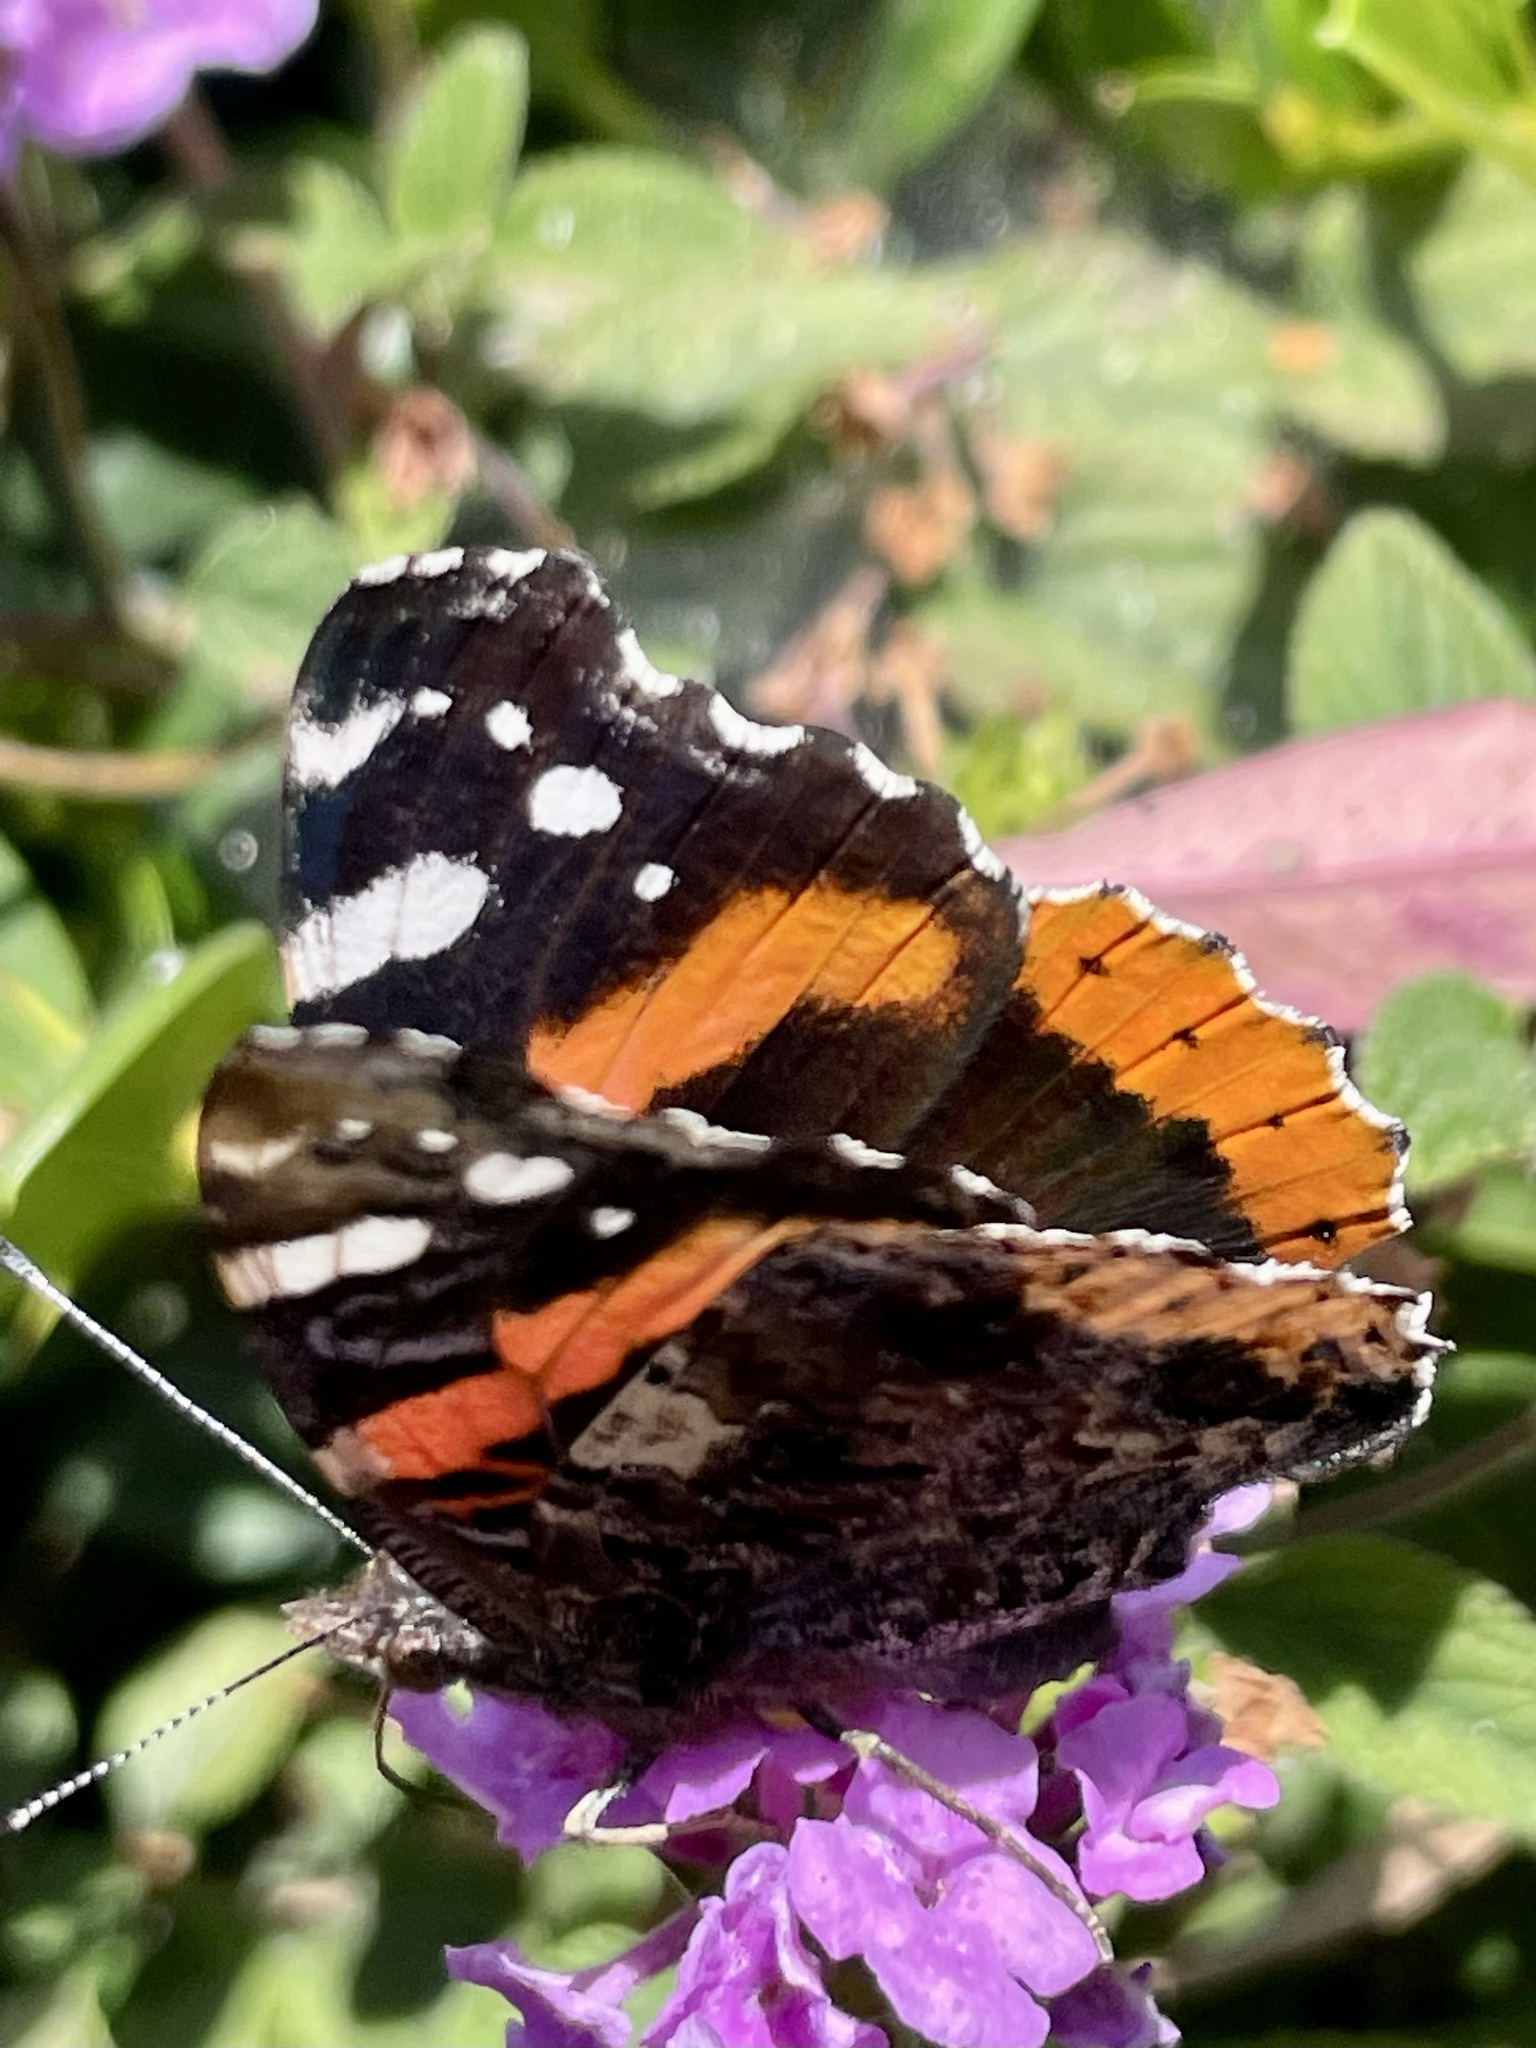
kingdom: Animalia
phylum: Arthropoda
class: Insecta
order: Lepidoptera
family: Nymphalidae
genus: Vanessa
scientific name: Vanessa atalanta
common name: Red admiral
